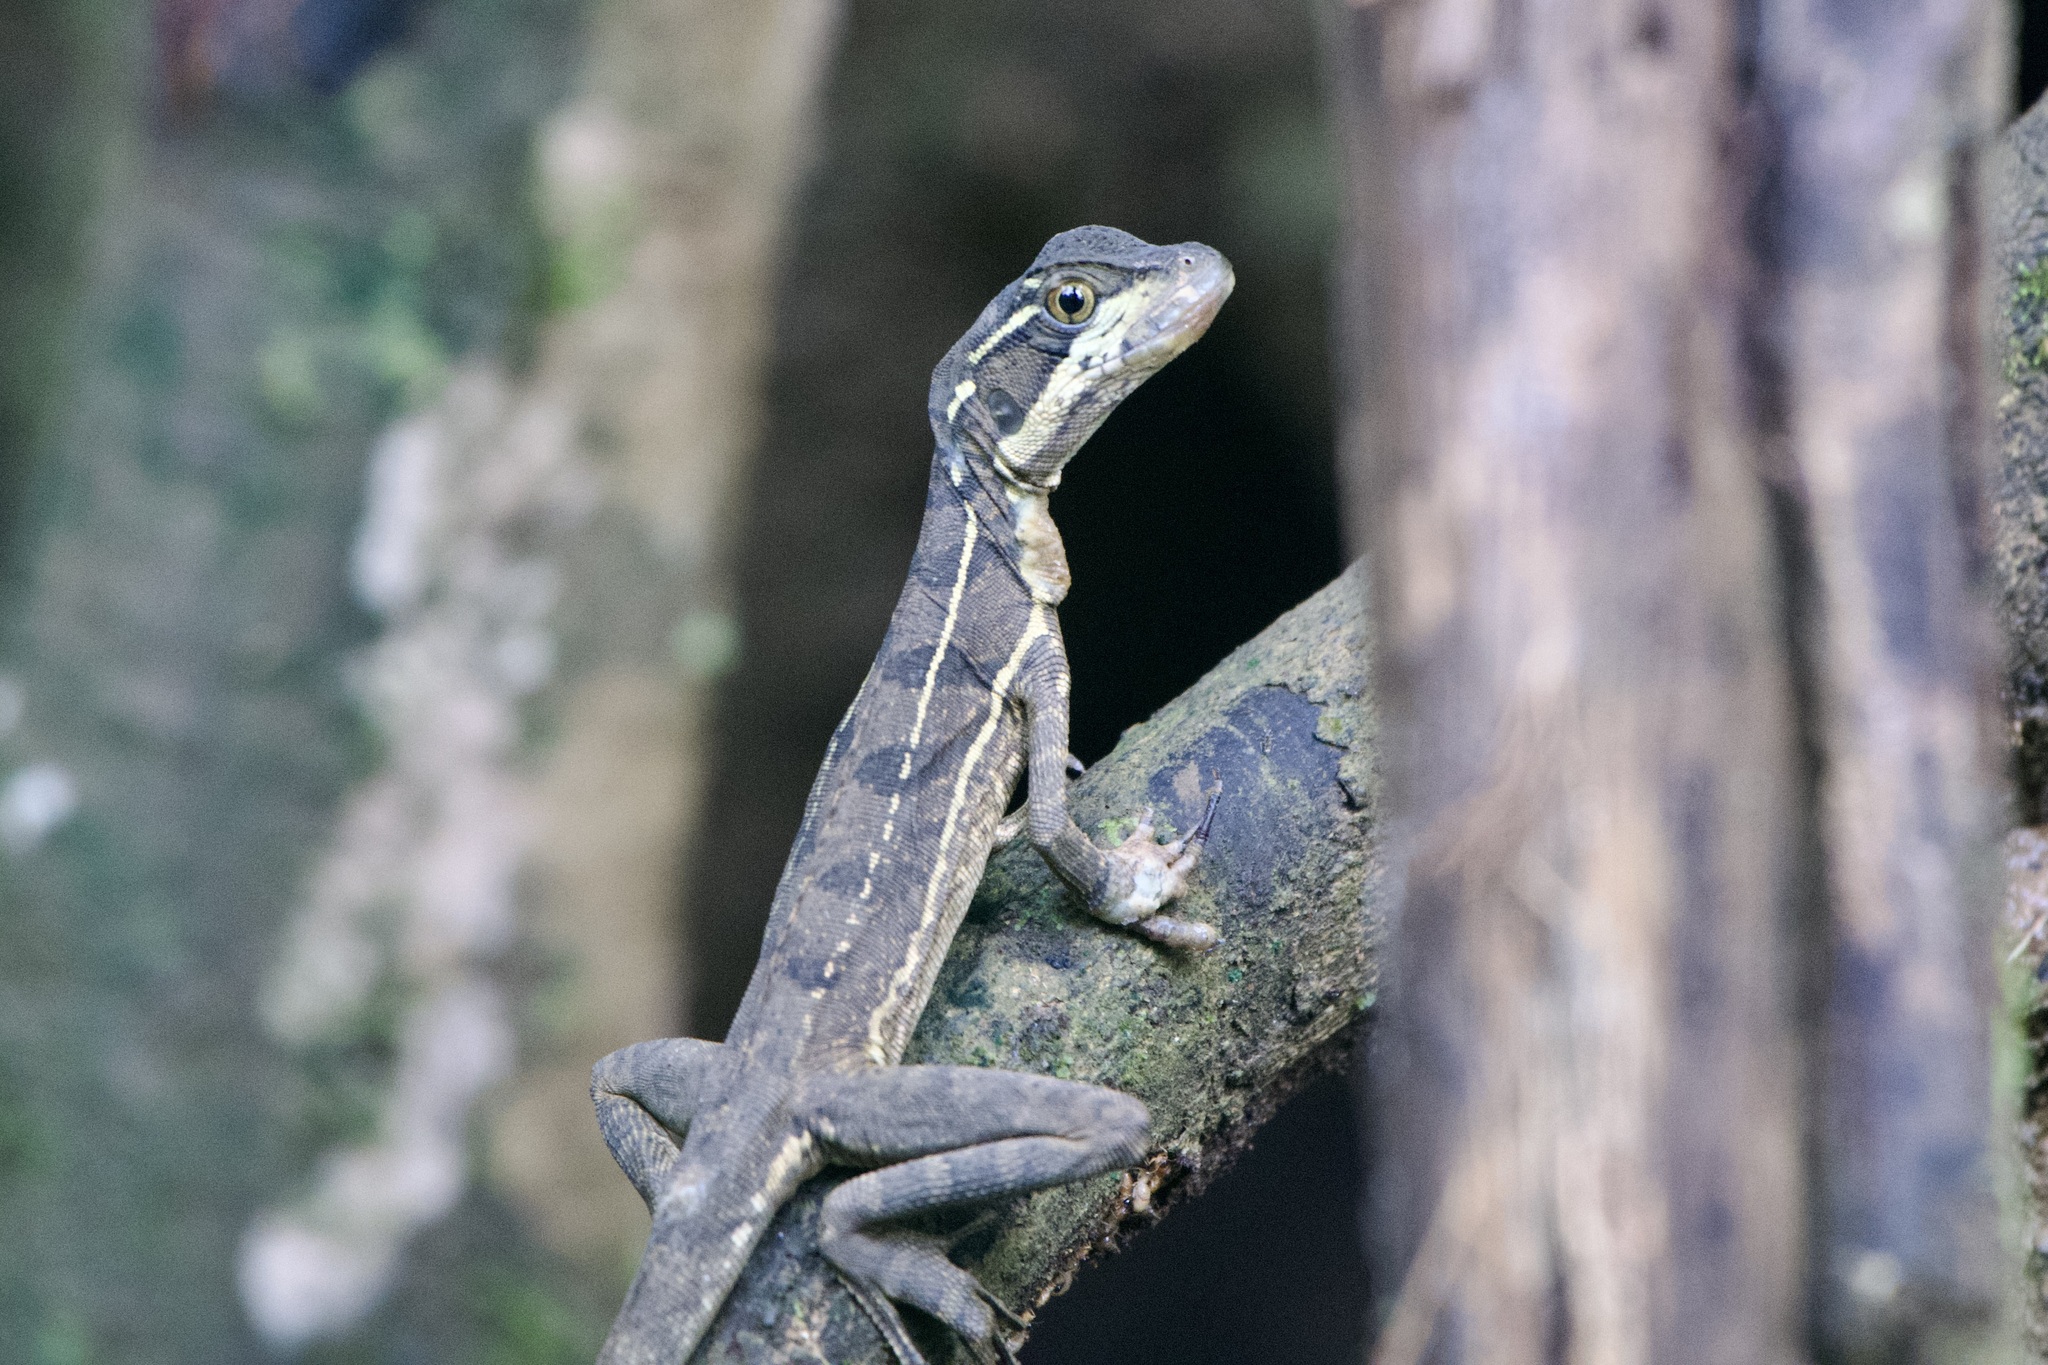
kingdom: Animalia
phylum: Chordata
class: Squamata
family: Corytophanidae
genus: Basiliscus
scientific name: Basiliscus basiliscus
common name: Common basilisk
